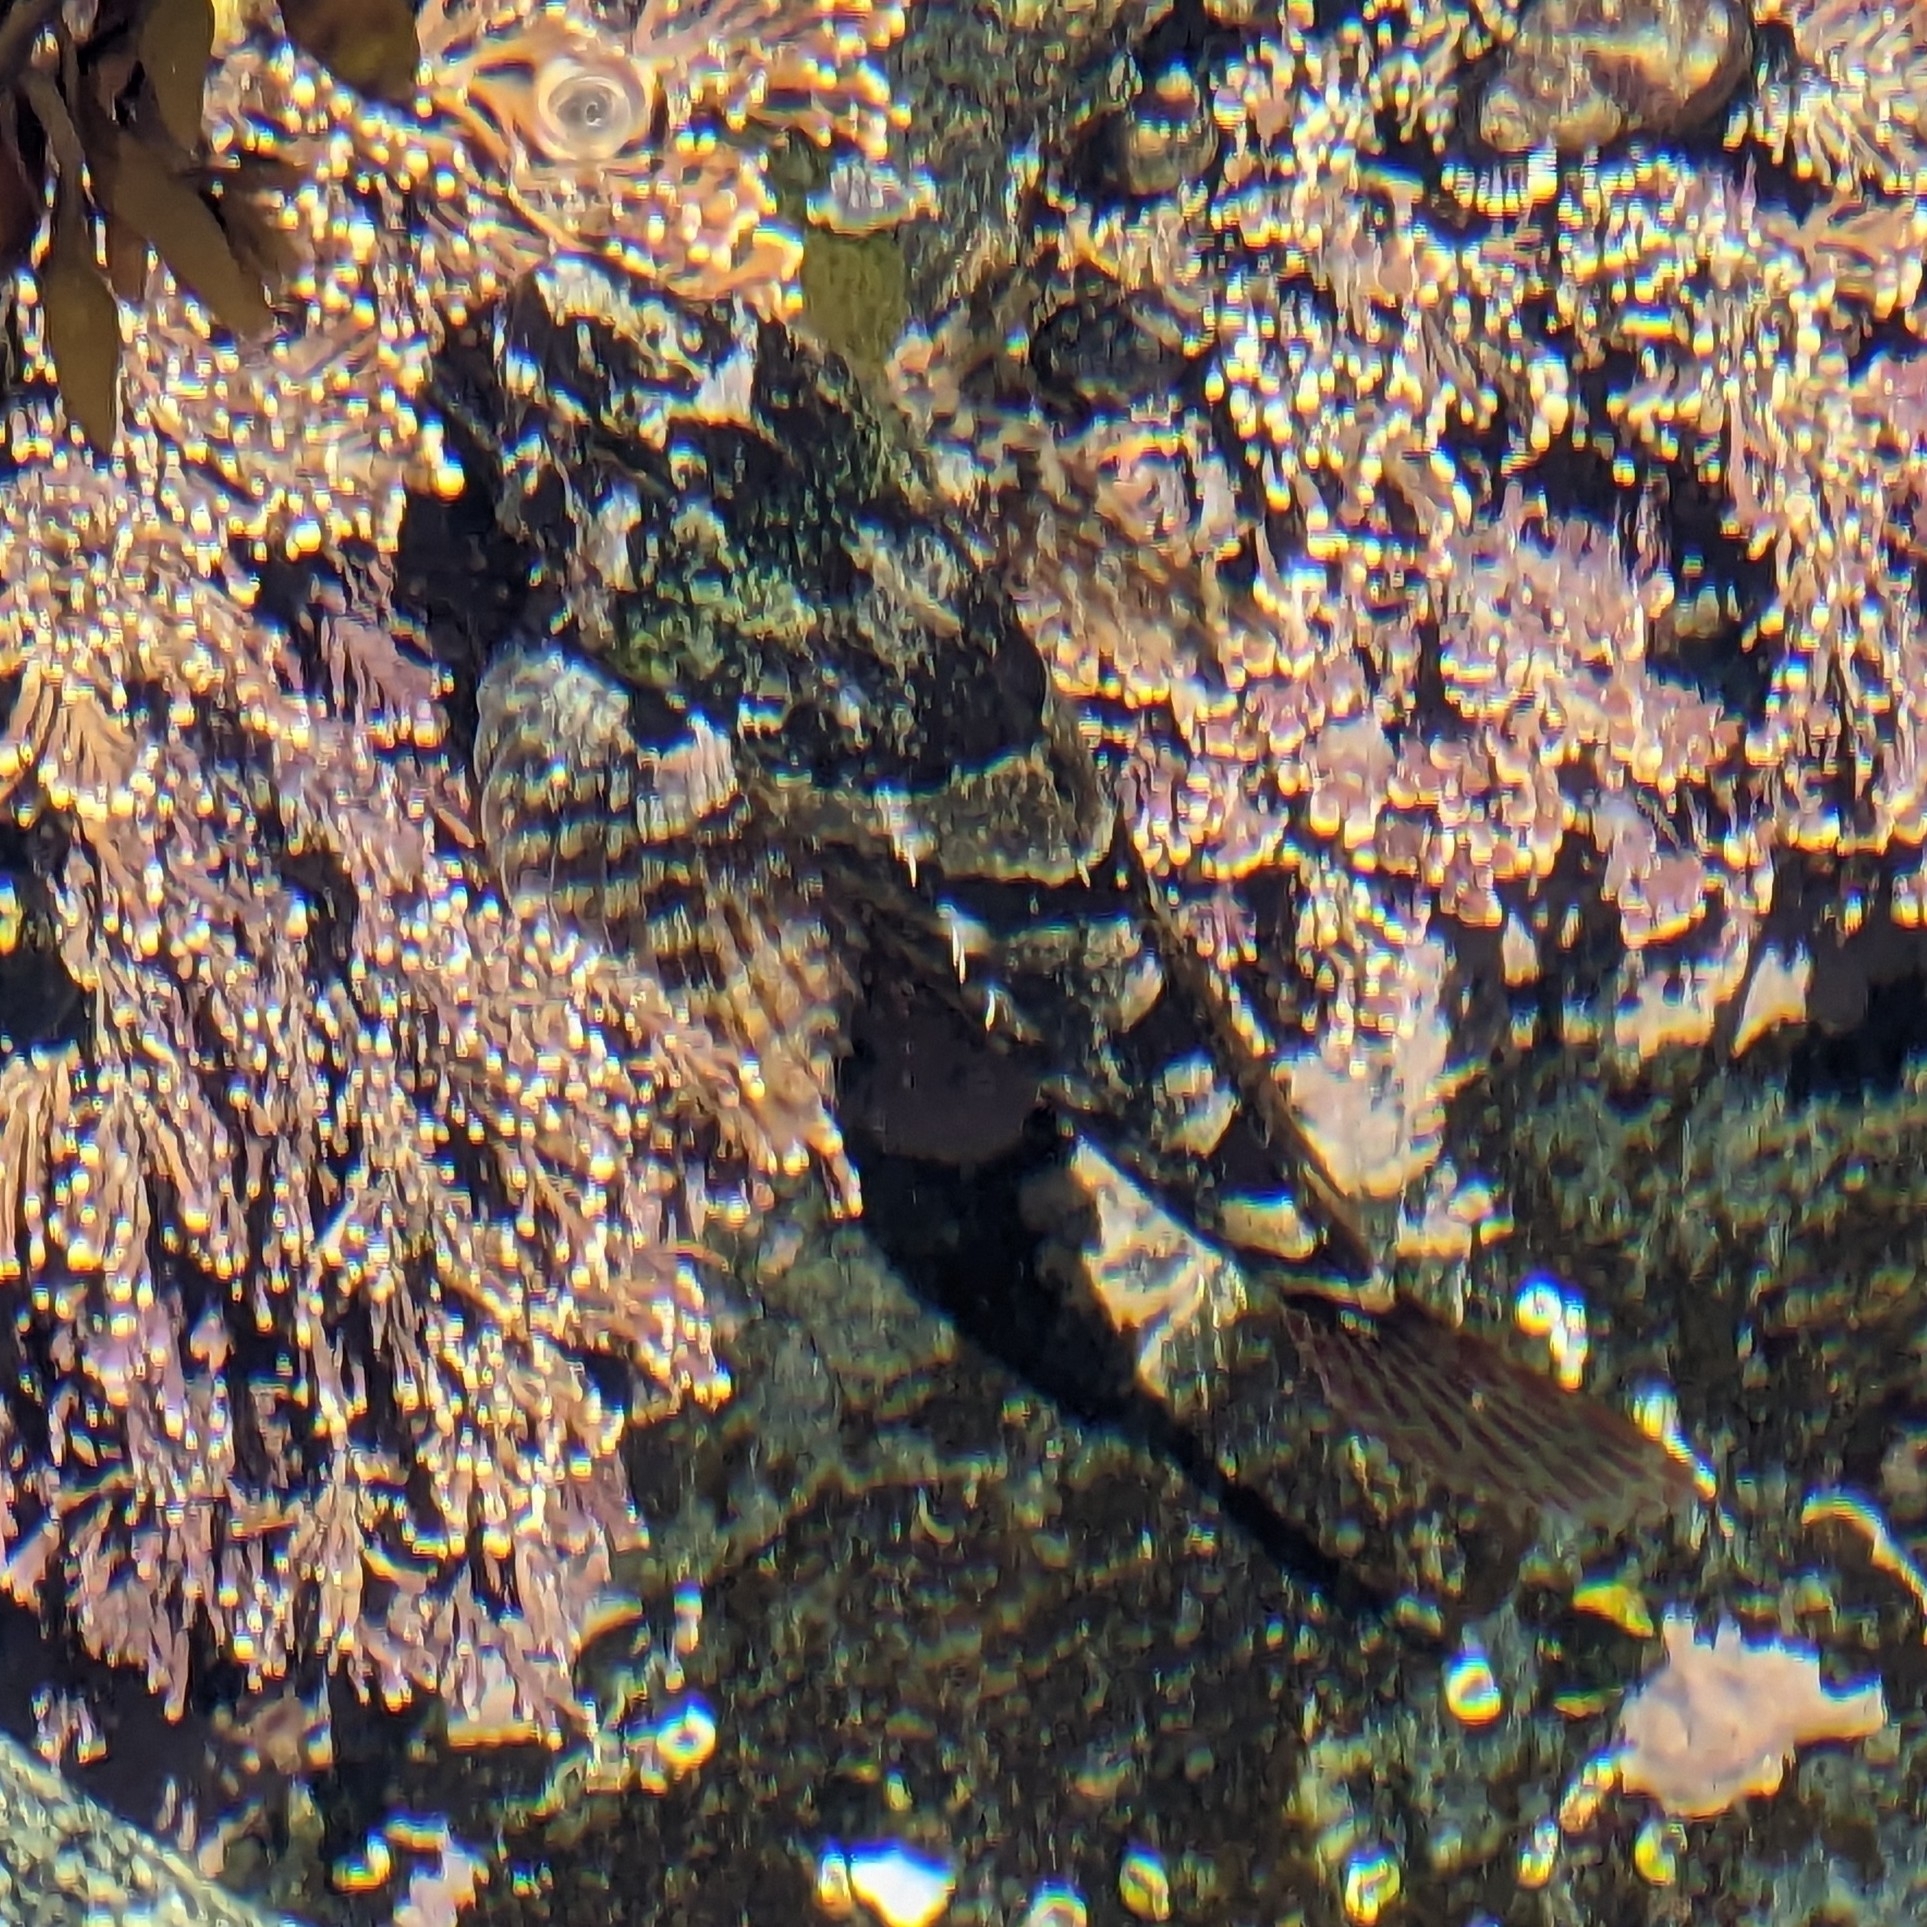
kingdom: Animalia
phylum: Chordata
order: Scorpaeniformes
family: Cottidae
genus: Oligocottus
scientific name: Oligocottus maculosus
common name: Tidepool sculpin
